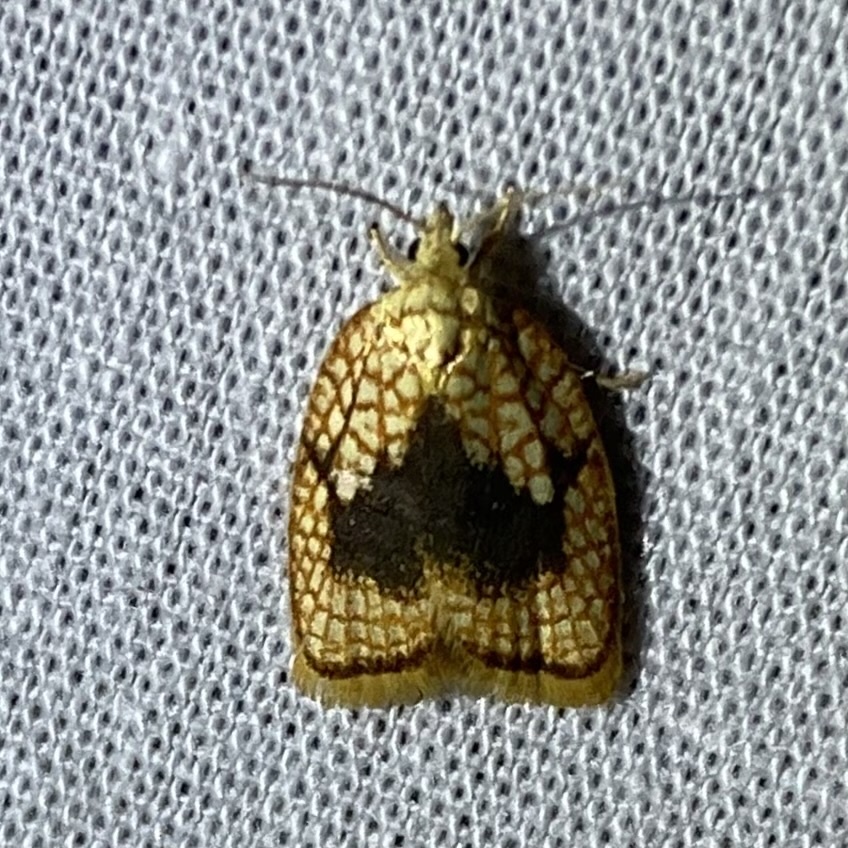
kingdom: Animalia
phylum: Arthropoda
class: Insecta
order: Lepidoptera
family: Tortricidae
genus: Acleris
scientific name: Acleris forsskaleana
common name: Maple button
